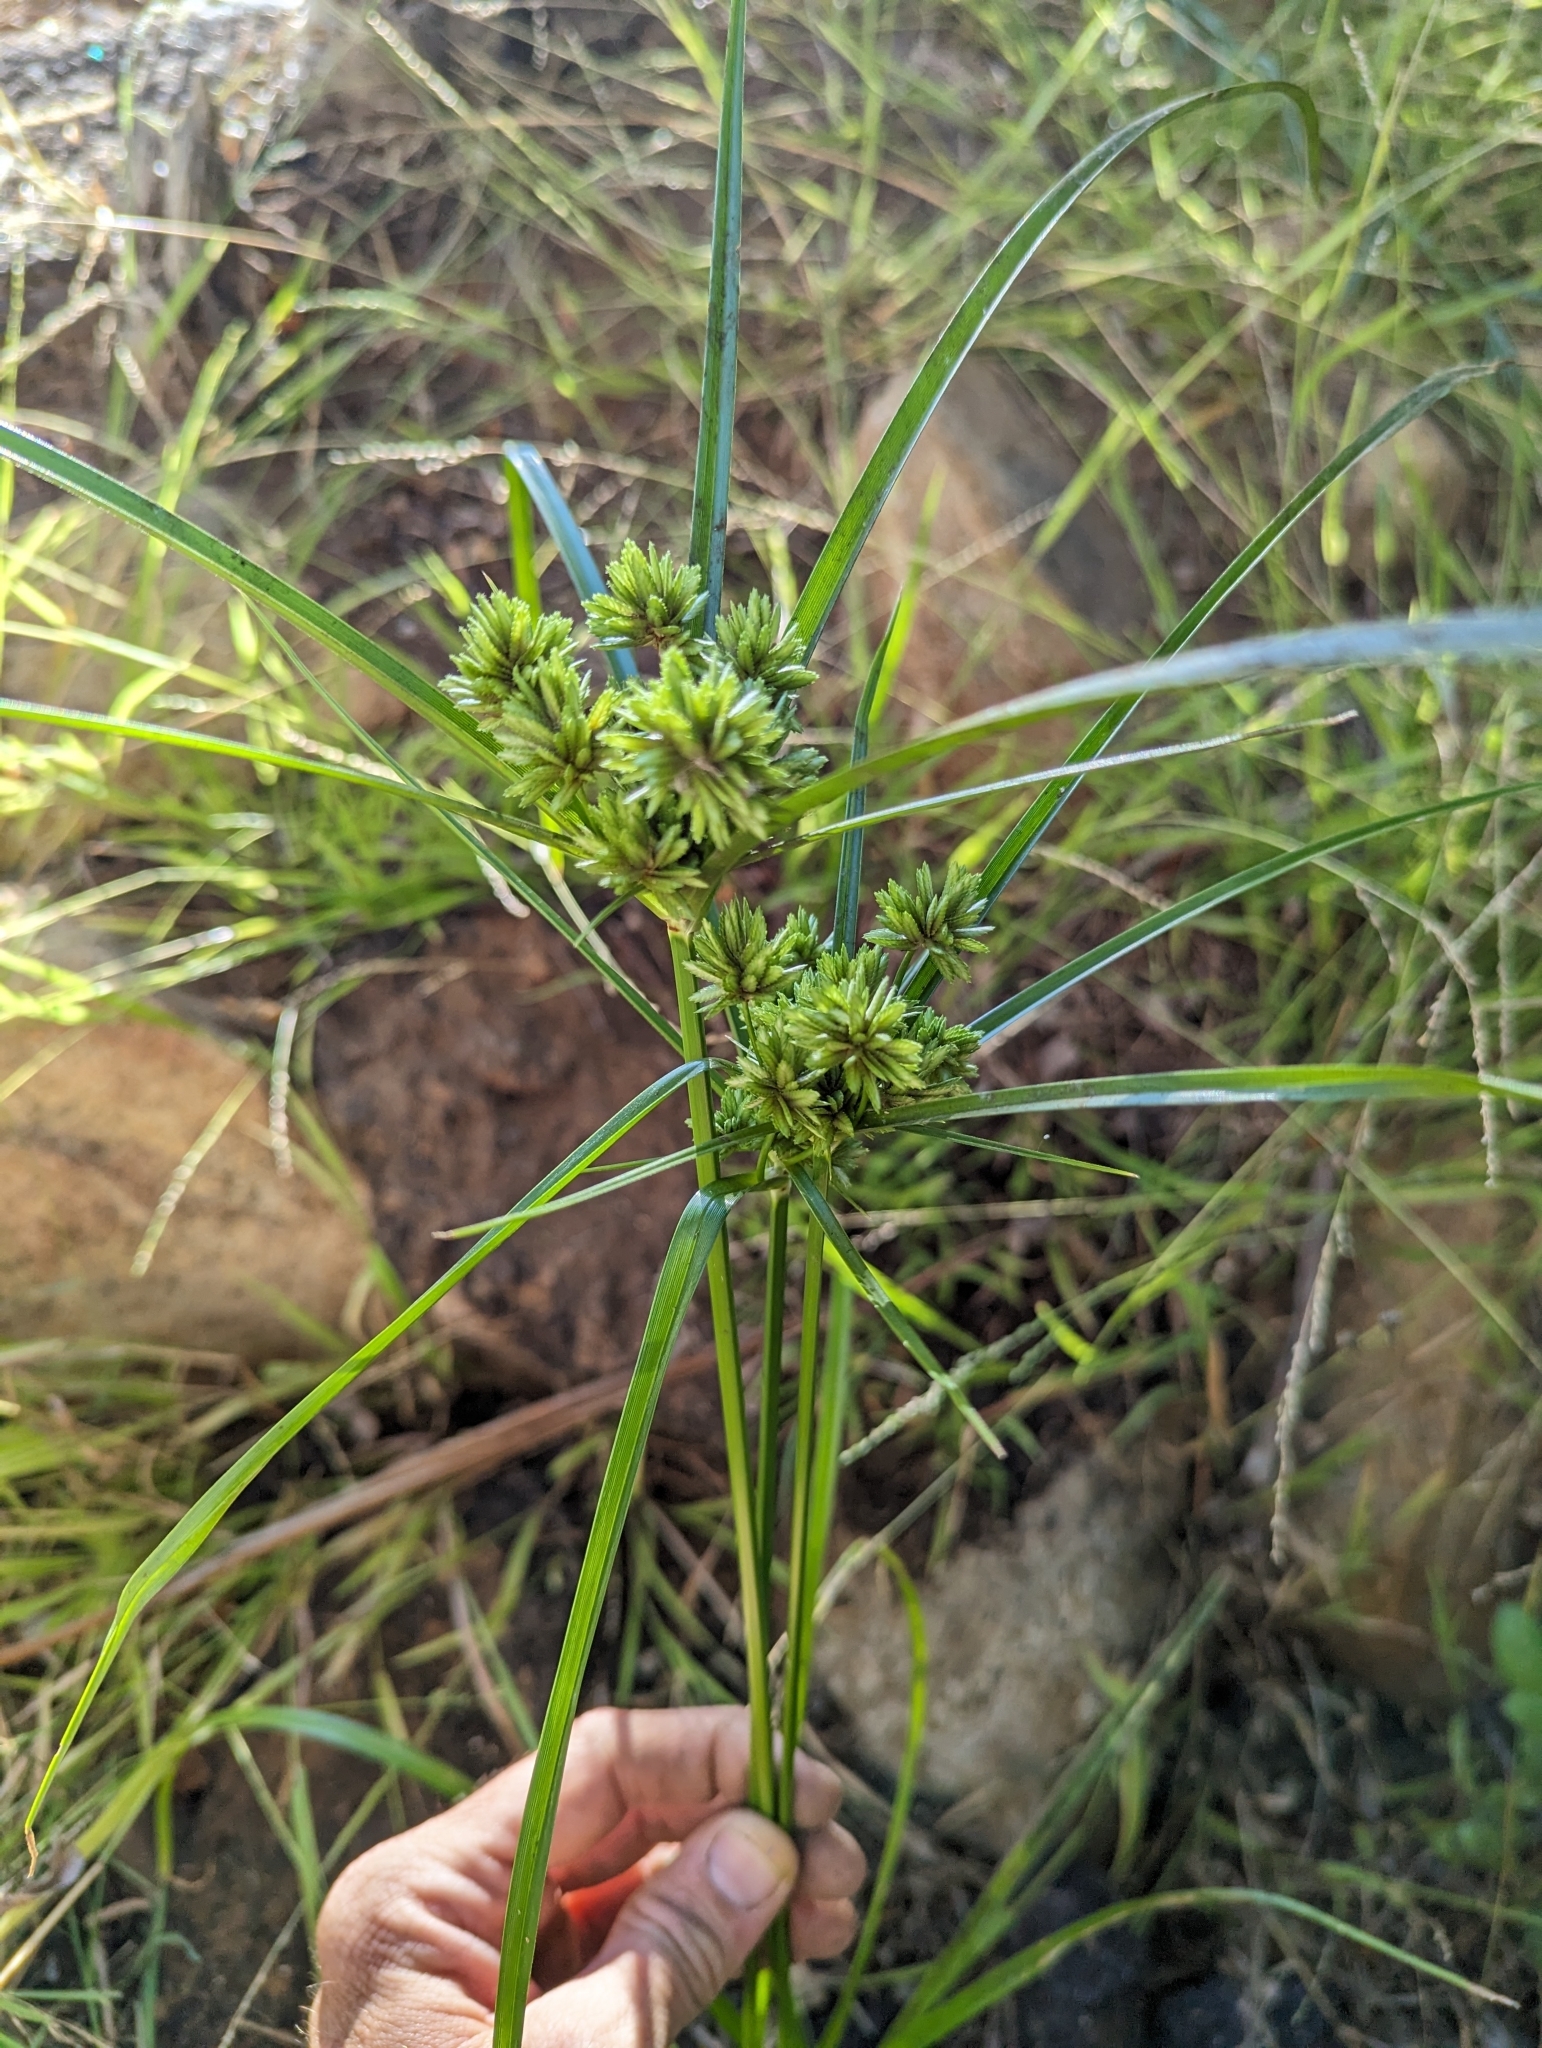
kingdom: Plantae
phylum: Tracheophyta
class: Liliopsida
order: Poales
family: Cyperaceae
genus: Cyperus
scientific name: Cyperus eragrostis
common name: Tall flatsedge
